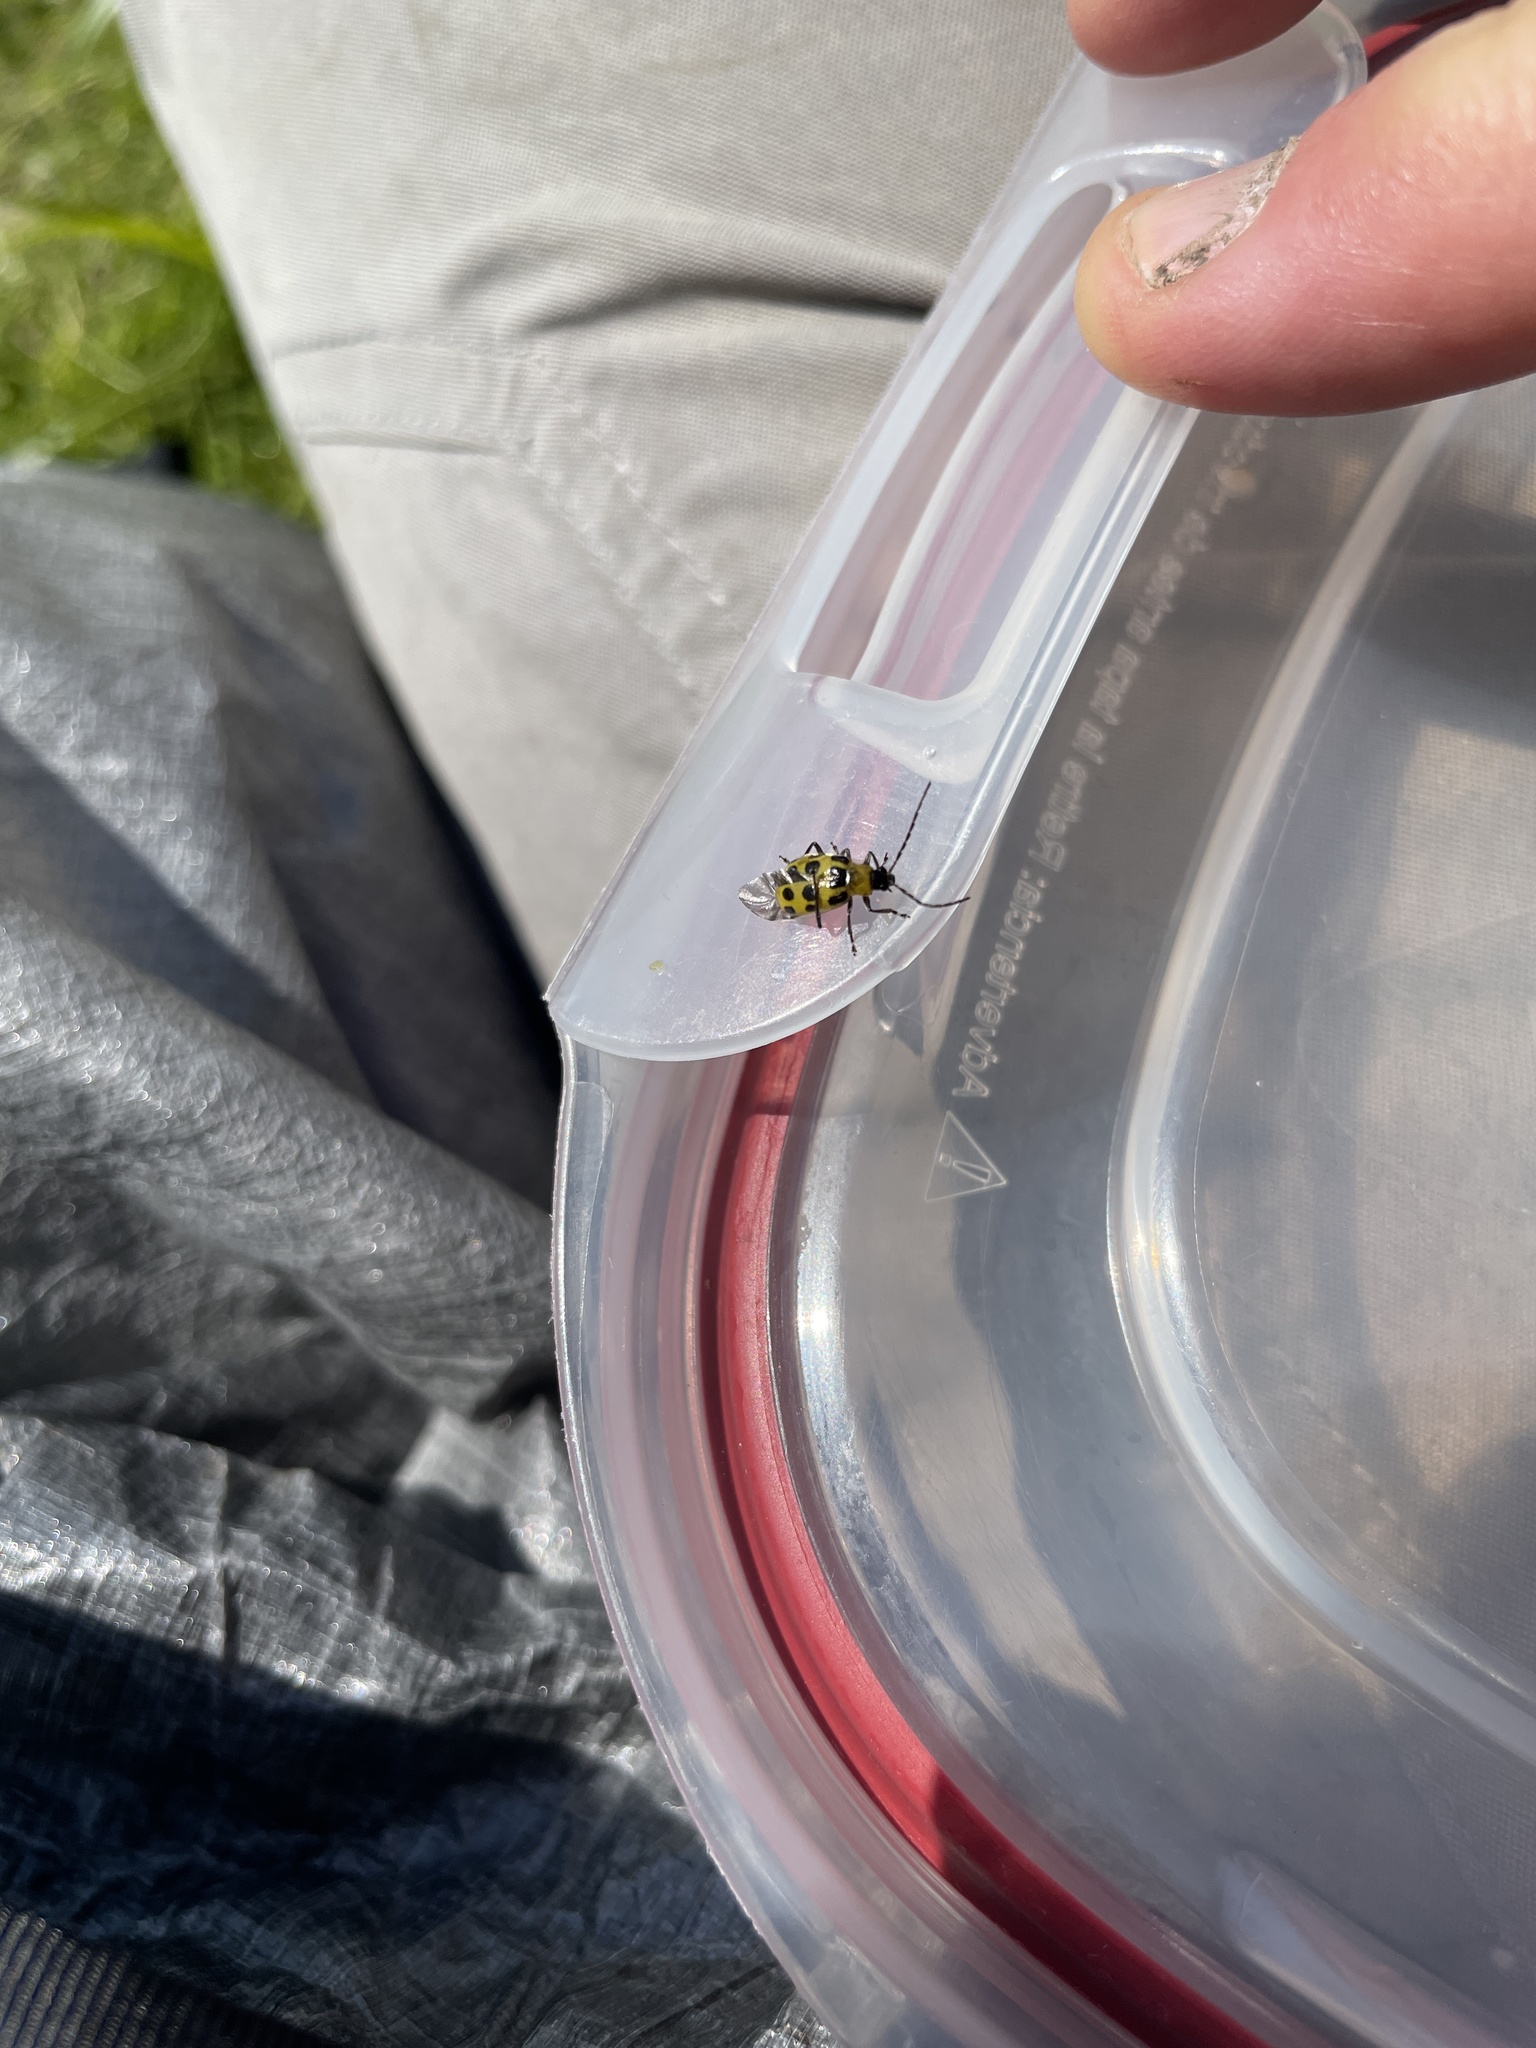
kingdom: Animalia
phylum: Arthropoda
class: Insecta
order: Coleoptera
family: Chrysomelidae
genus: Diabrotica
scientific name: Diabrotica undecimpunctata
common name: Spotted cucumber beetle
